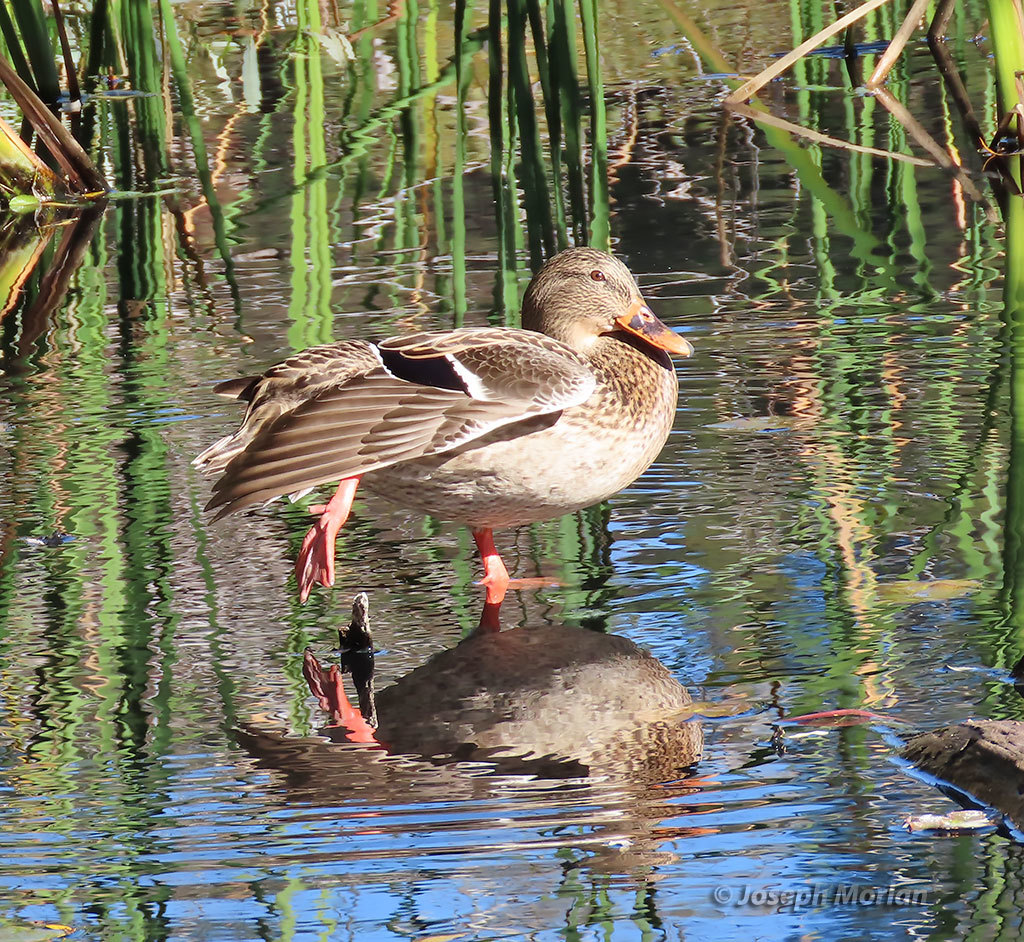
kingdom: Animalia
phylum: Chordata
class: Aves
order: Anseriformes
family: Anatidae
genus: Anas
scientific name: Anas platyrhynchos
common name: Mallard
